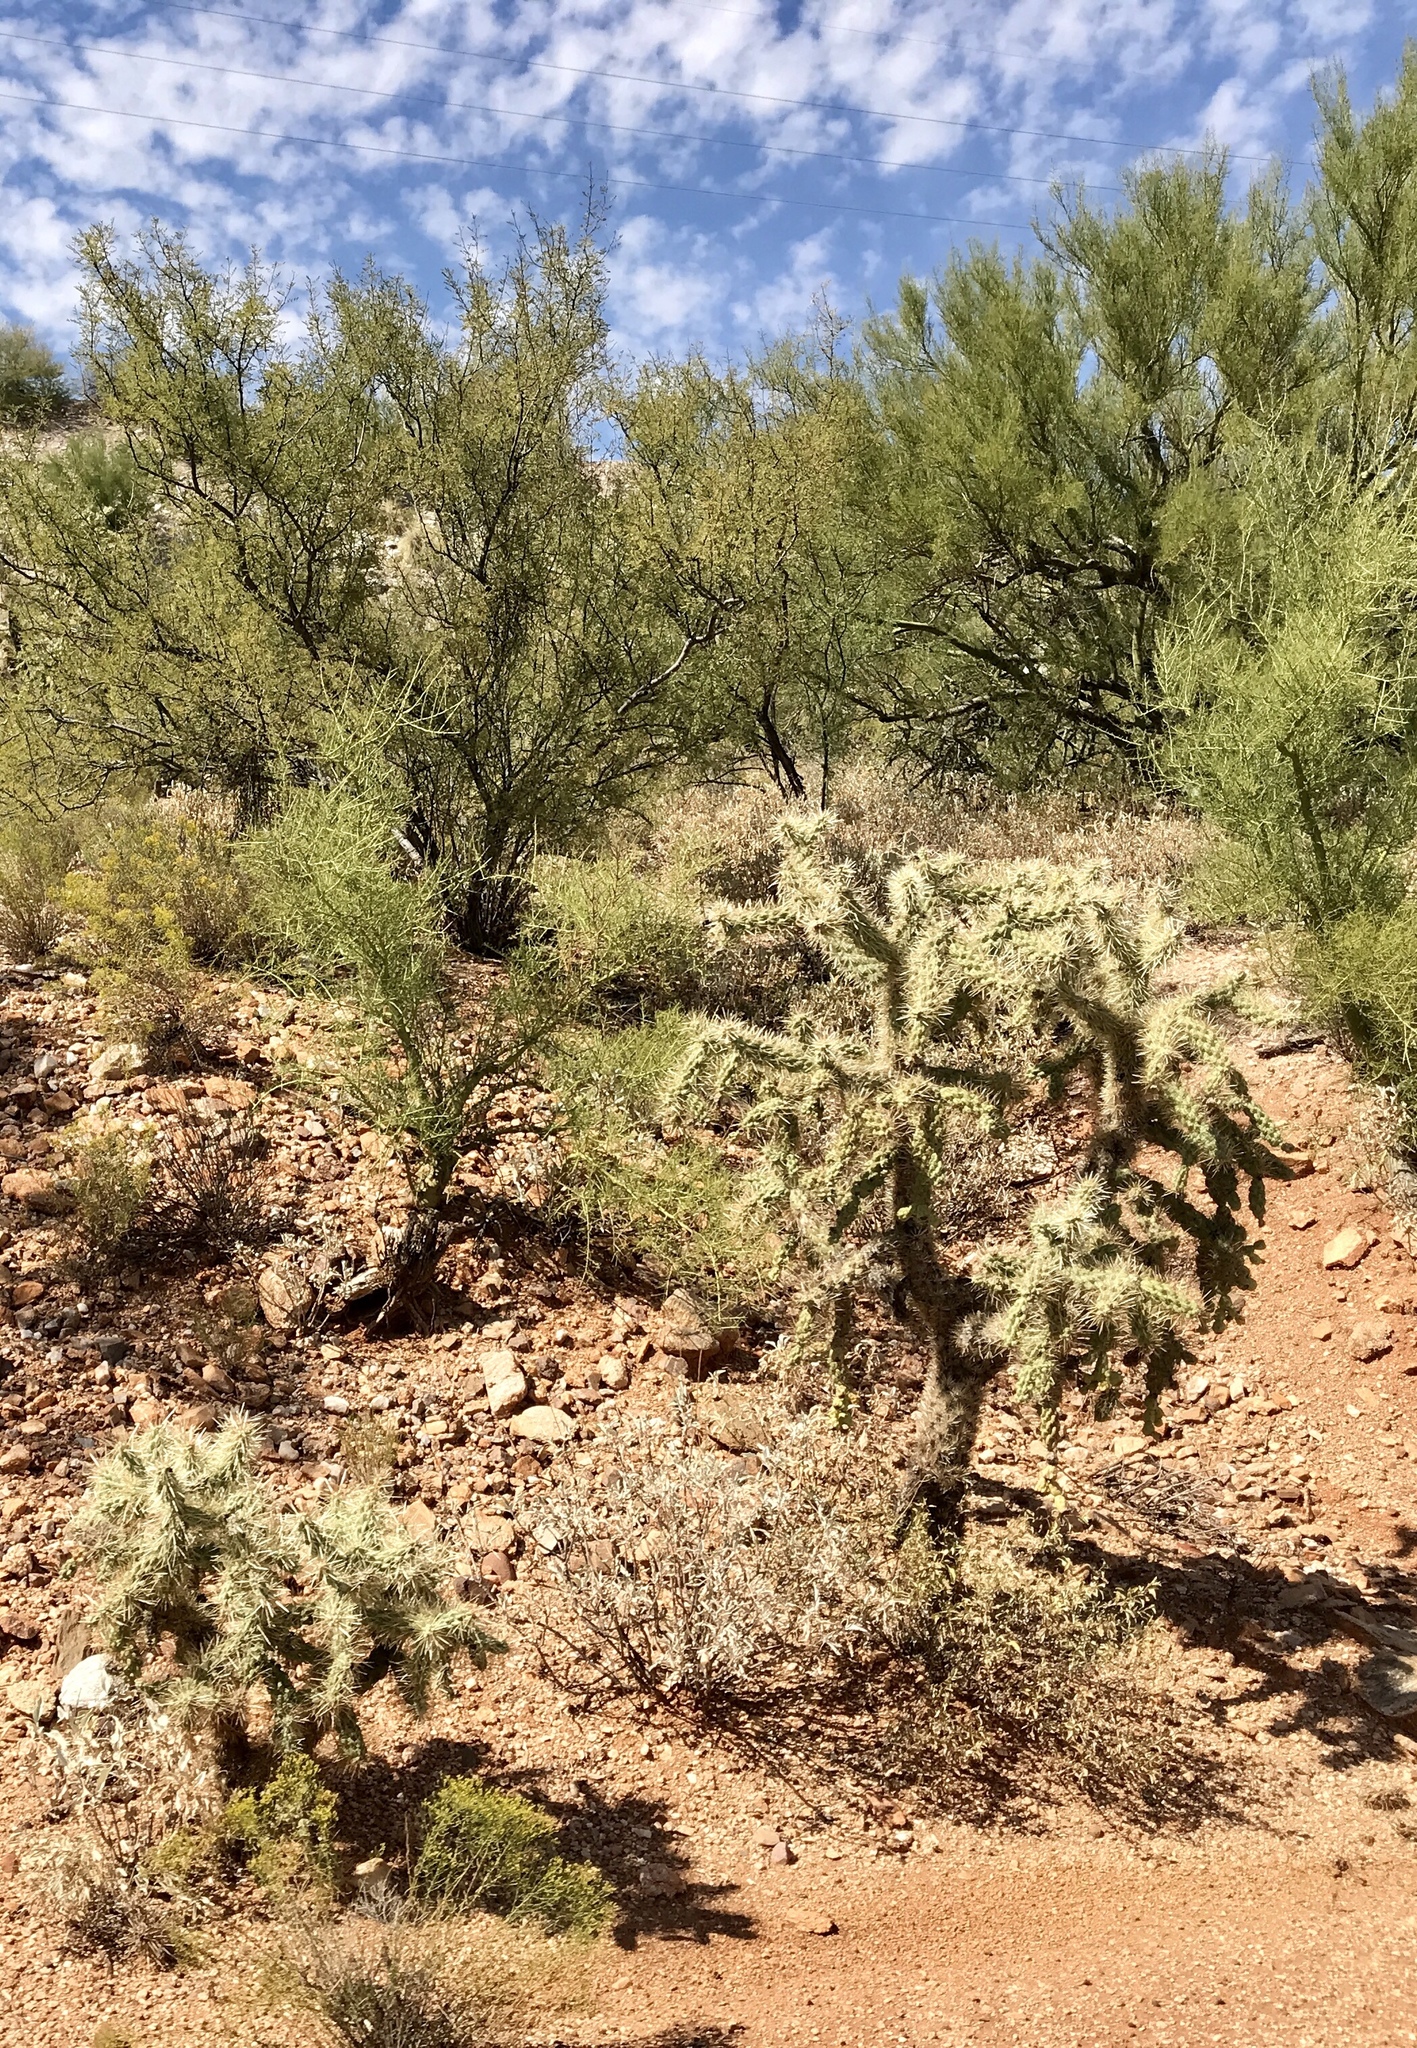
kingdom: Plantae
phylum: Tracheophyta
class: Magnoliopsida
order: Caryophyllales
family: Cactaceae
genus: Cylindropuntia
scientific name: Cylindropuntia fulgida
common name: Jumping cholla
